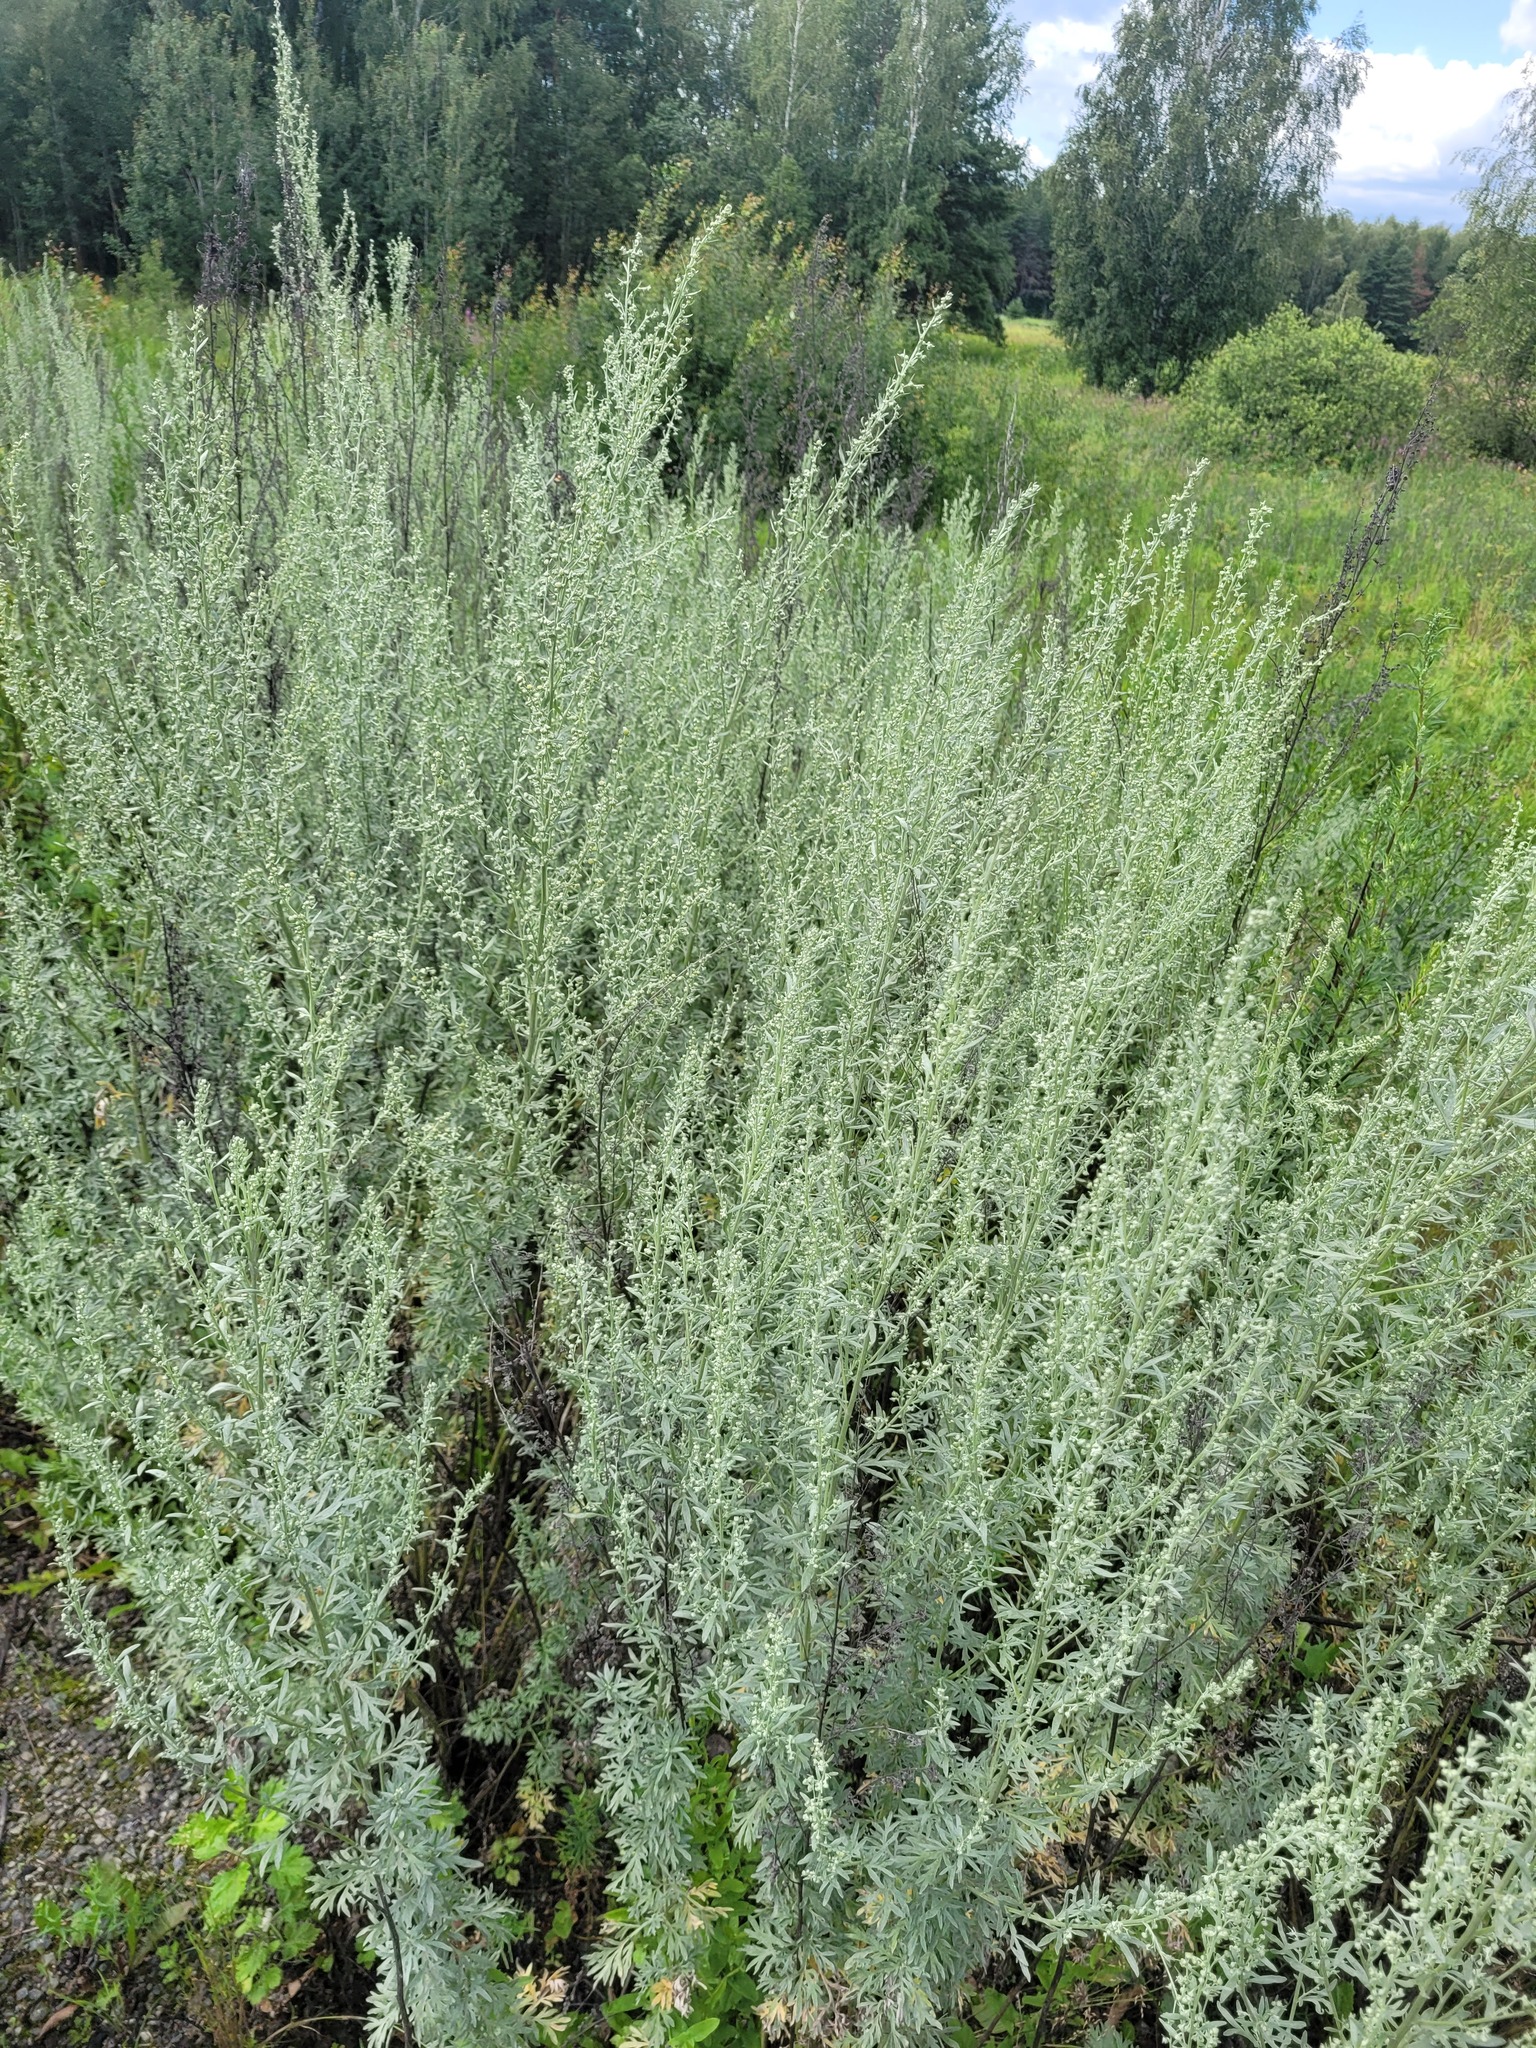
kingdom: Plantae
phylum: Tracheophyta
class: Magnoliopsida
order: Asterales
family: Asteraceae
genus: Artemisia
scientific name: Artemisia absinthium
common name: Wormwood
